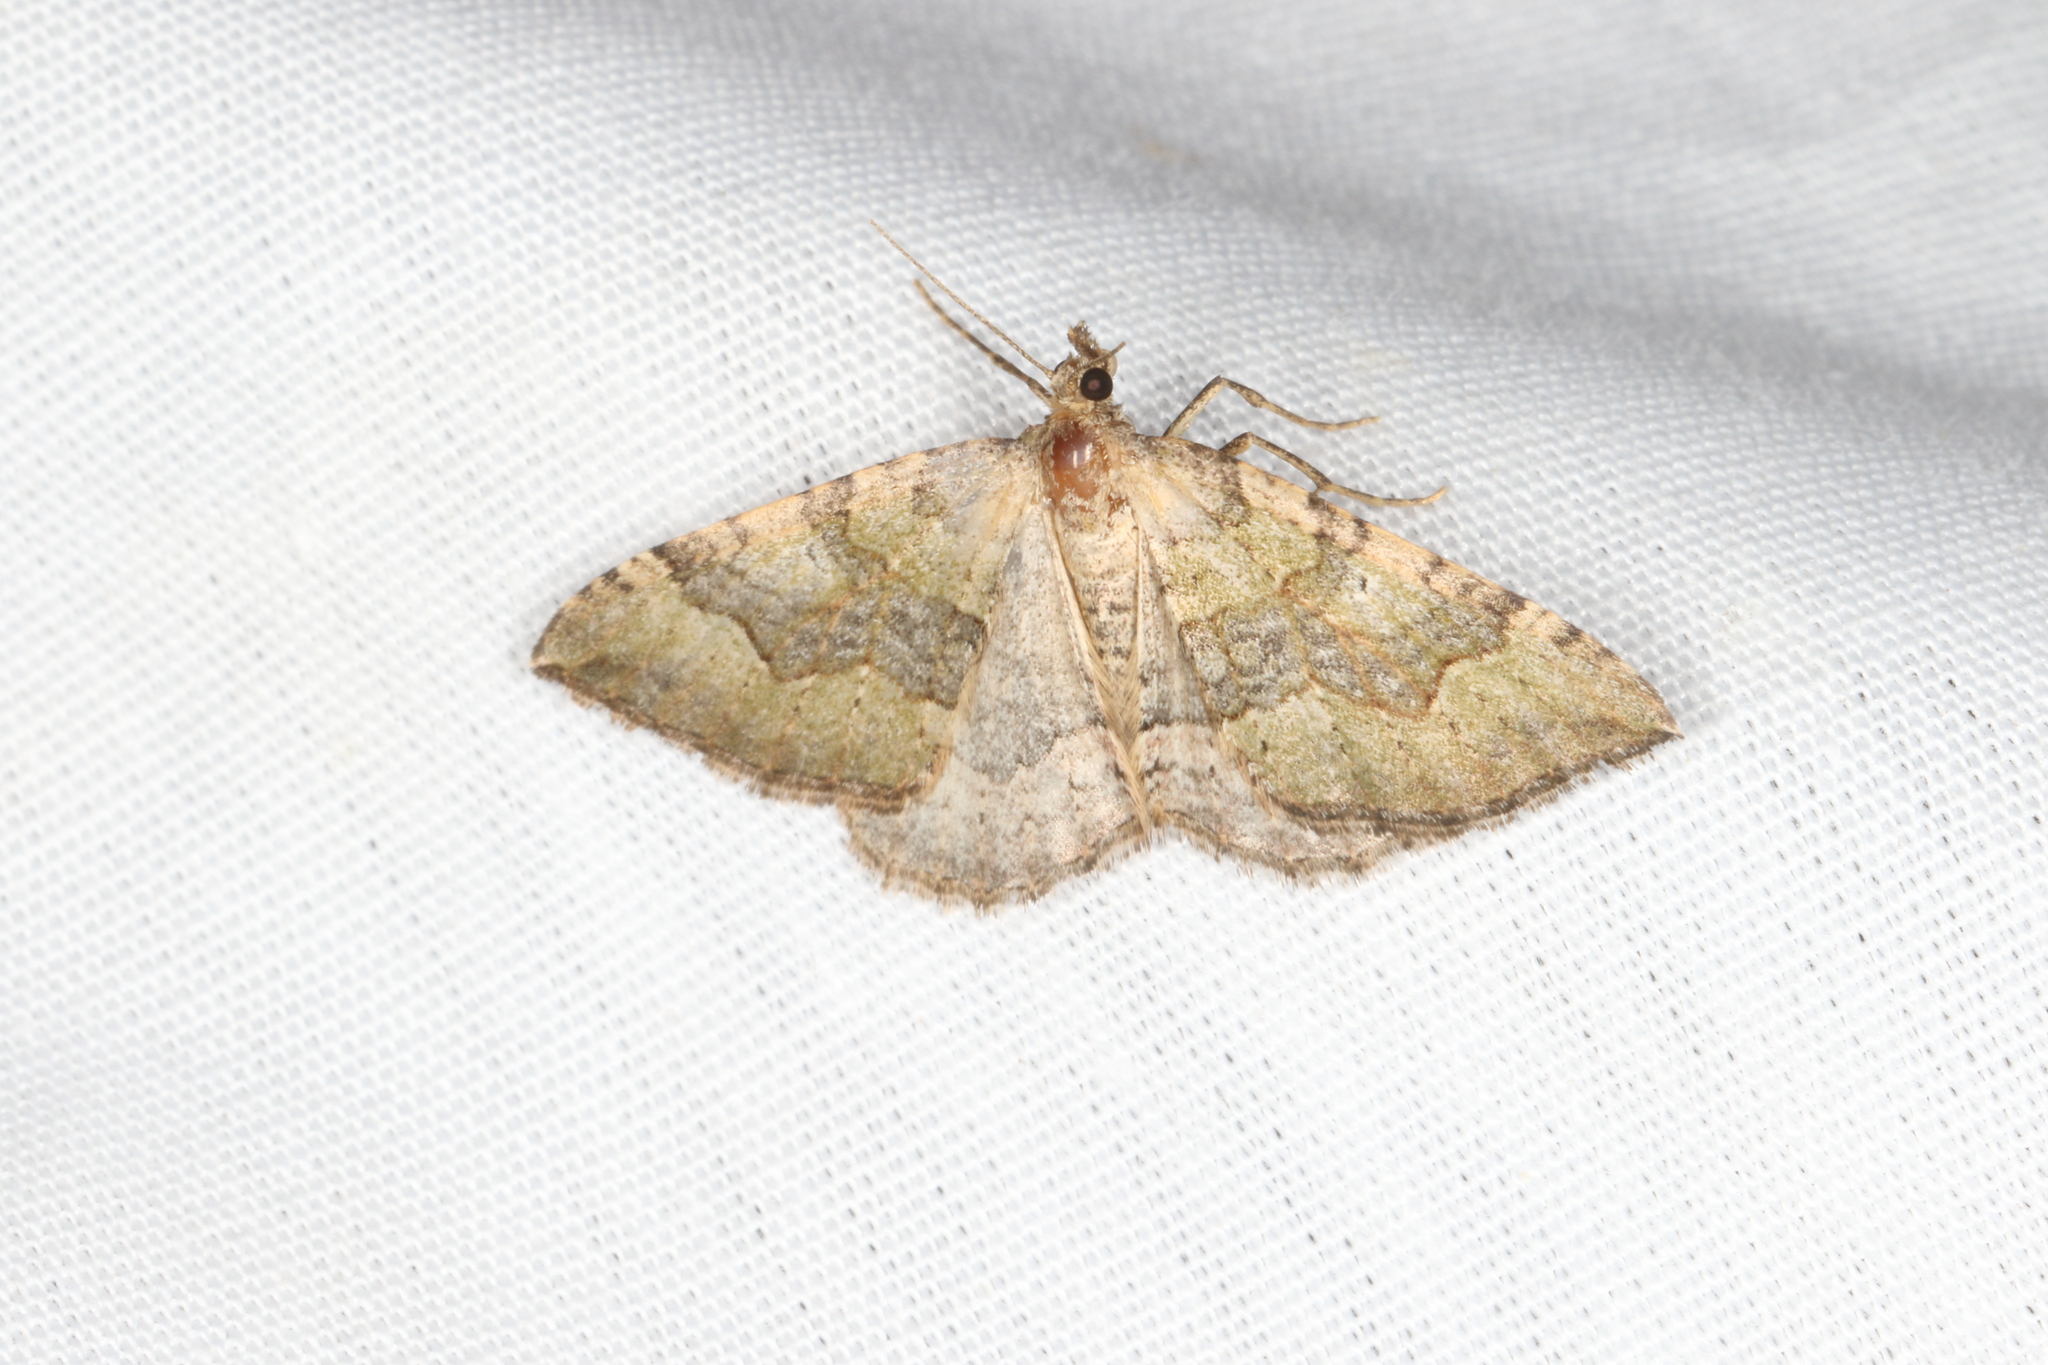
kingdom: Animalia
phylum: Arthropoda
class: Insecta
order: Lepidoptera
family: Geometridae
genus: Epyaxa
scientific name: Epyaxa rosearia
